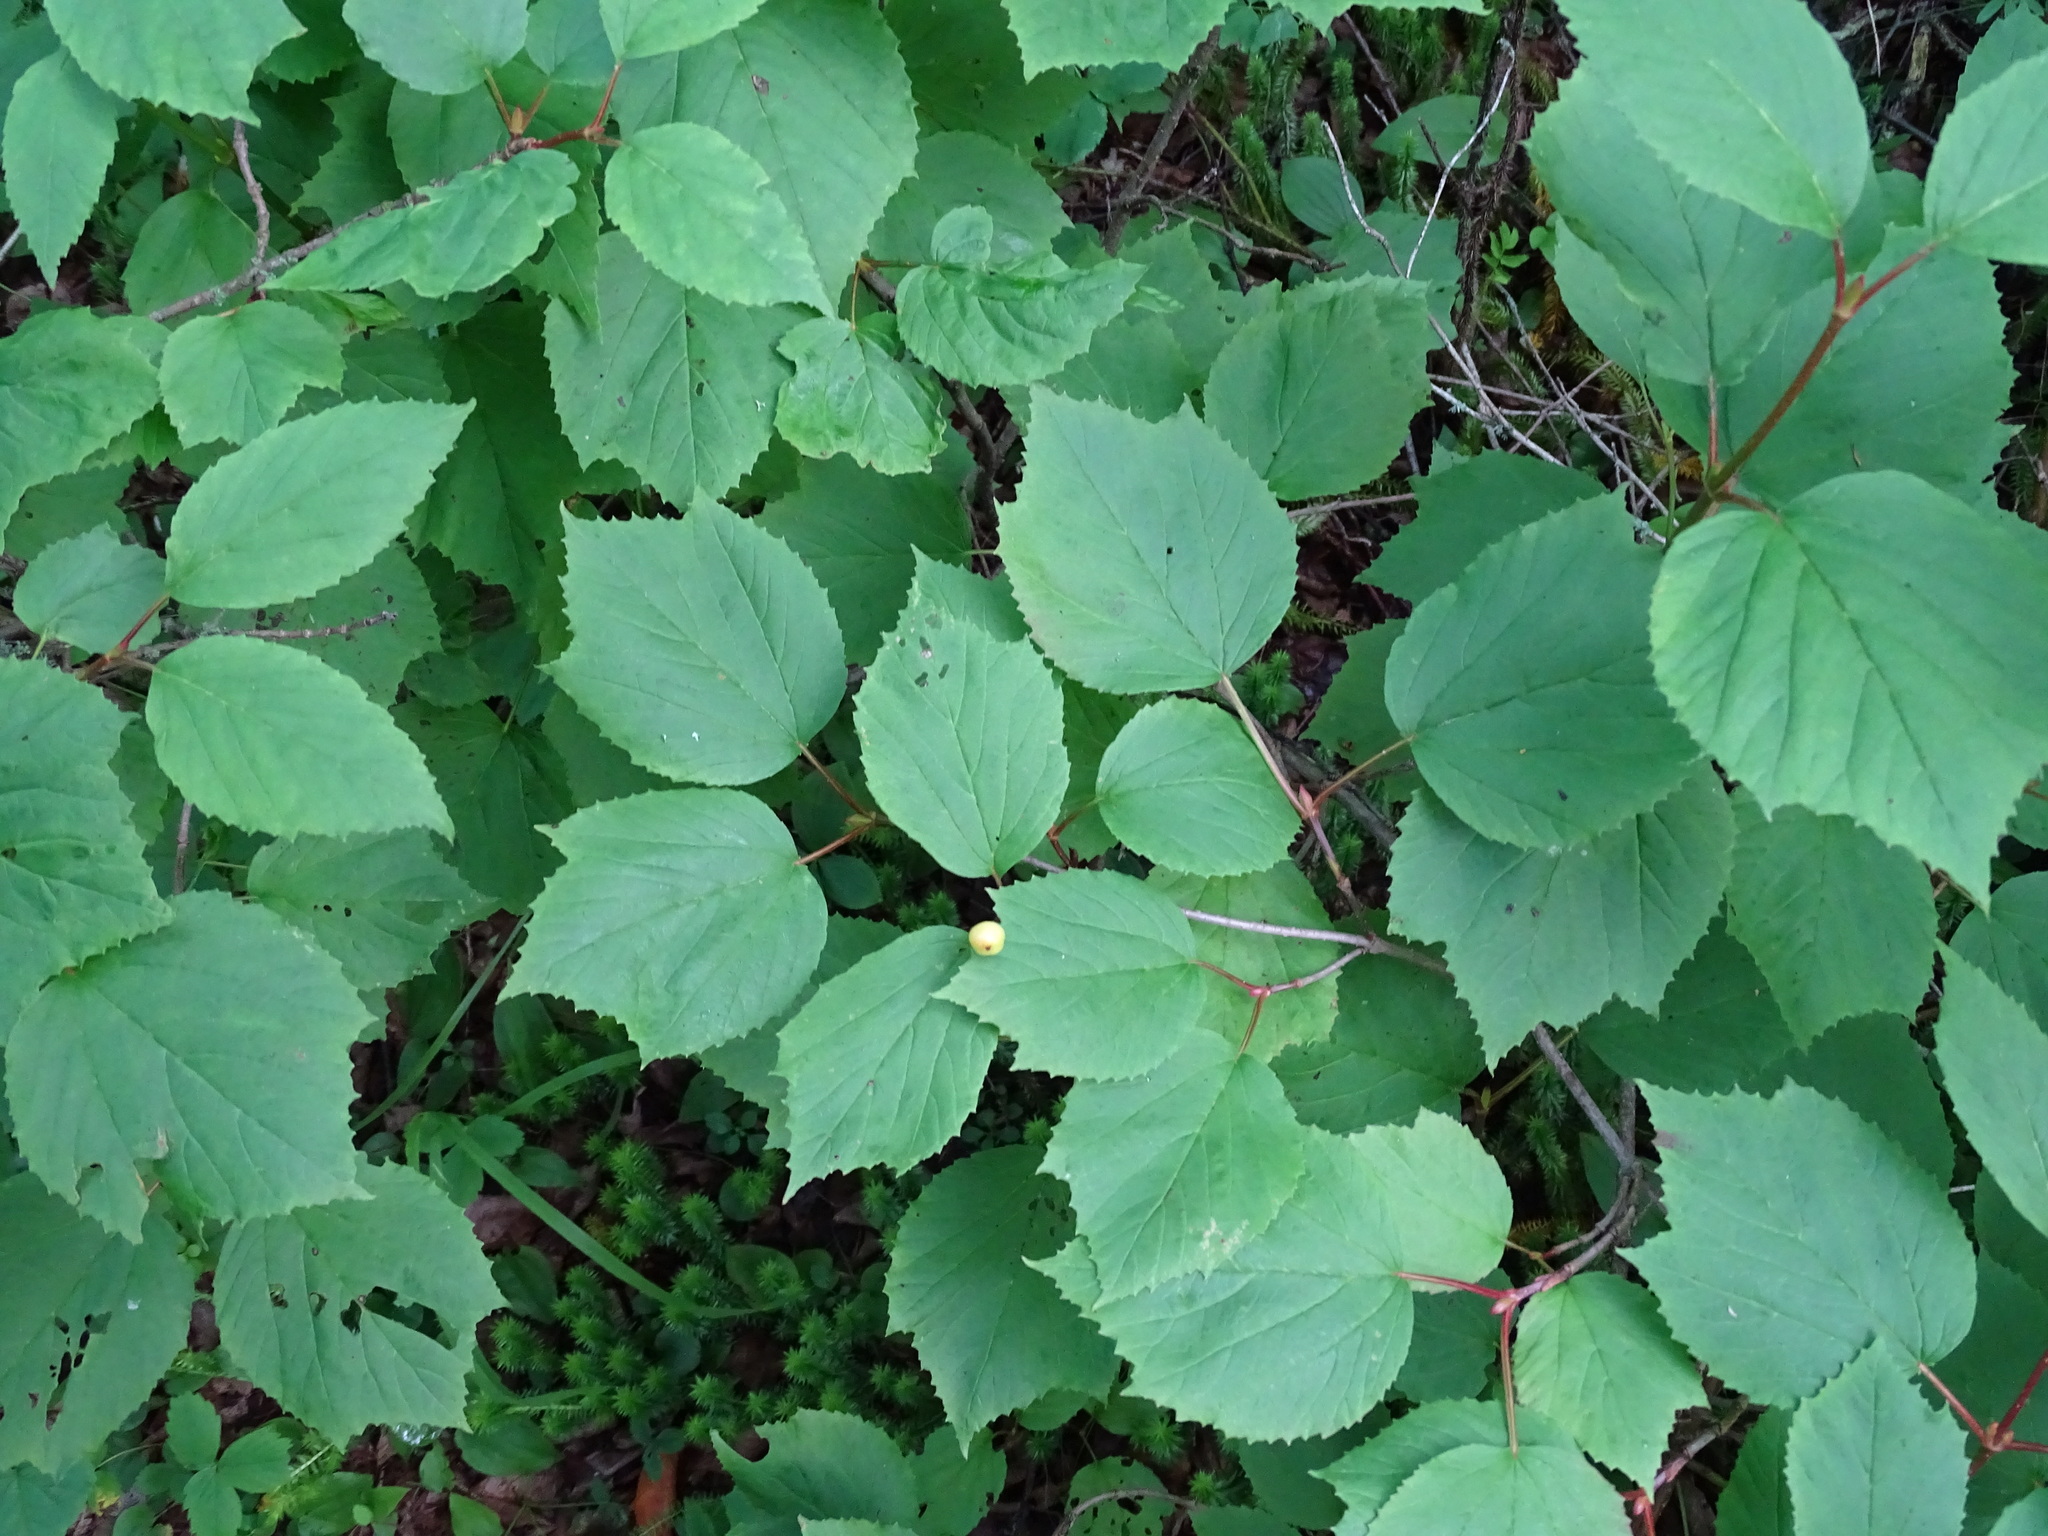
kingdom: Plantae
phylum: Tracheophyta
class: Magnoliopsida
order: Dipsacales
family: Viburnaceae
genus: Viburnum
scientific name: Viburnum edule
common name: Mooseberry
